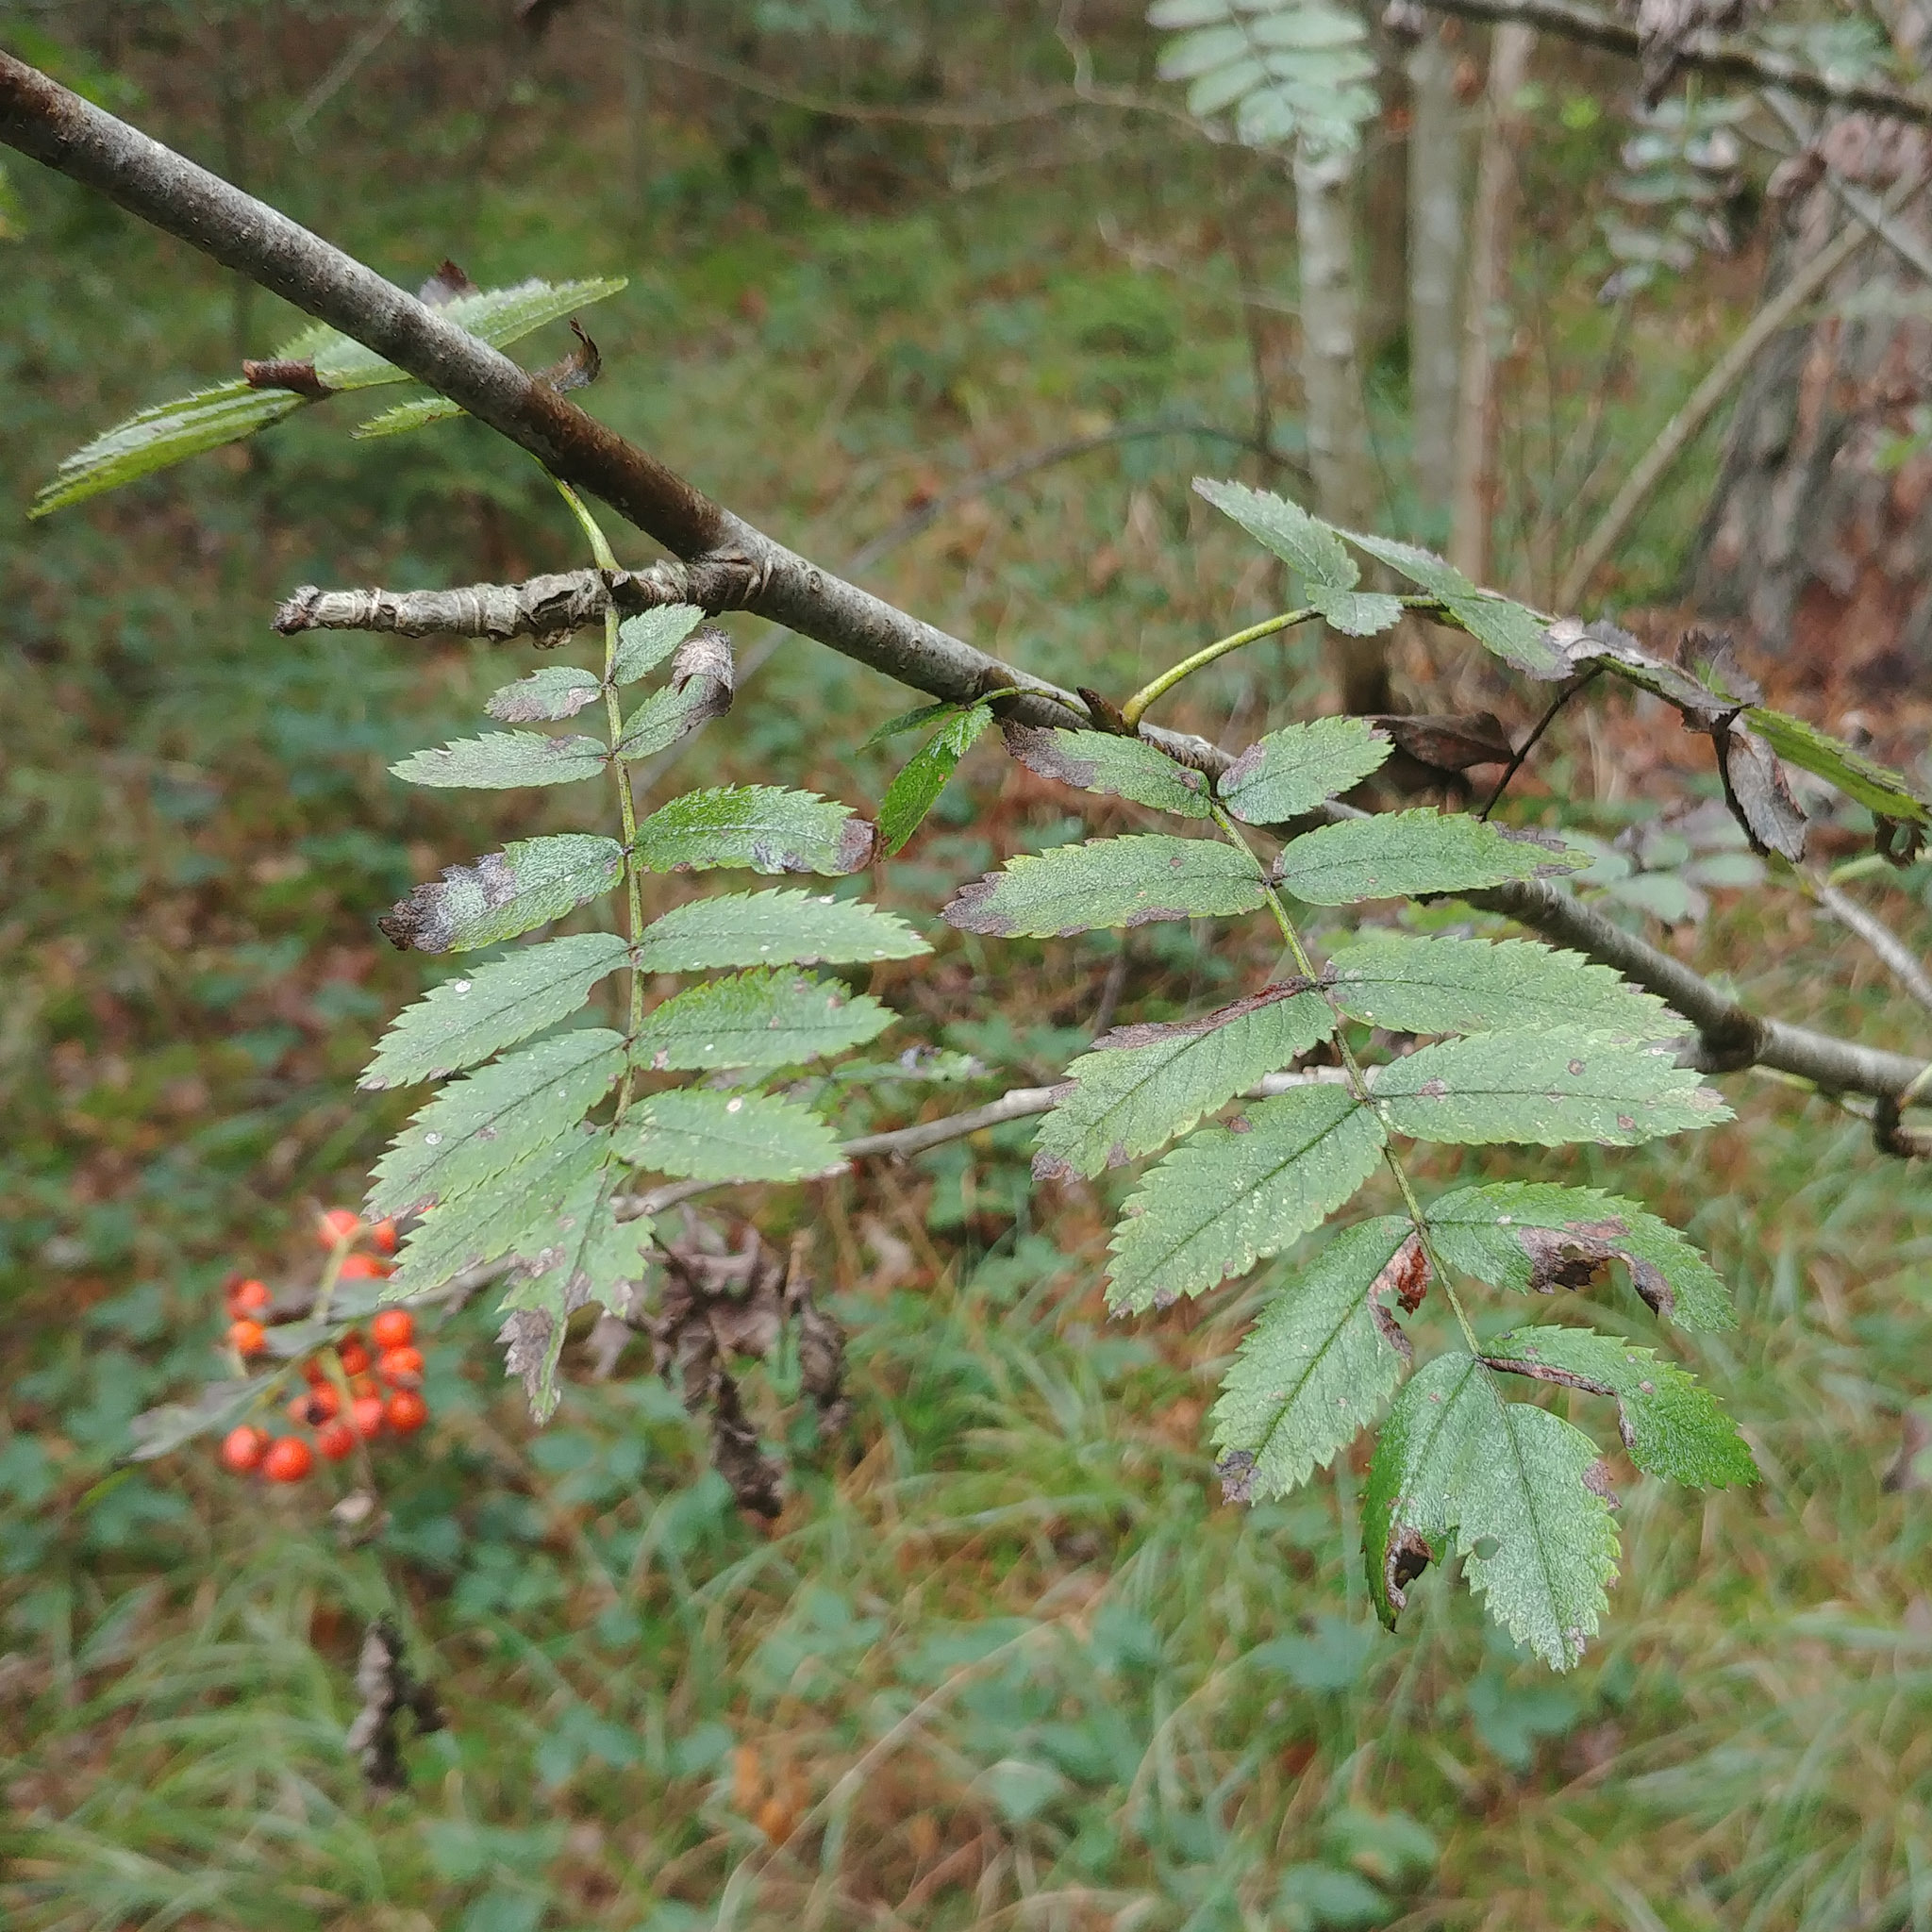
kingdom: Plantae
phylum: Tracheophyta
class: Magnoliopsida
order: Rosales
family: Rosaceae
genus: Sorbus
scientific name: Sorbus aucuparia
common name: Rowan
